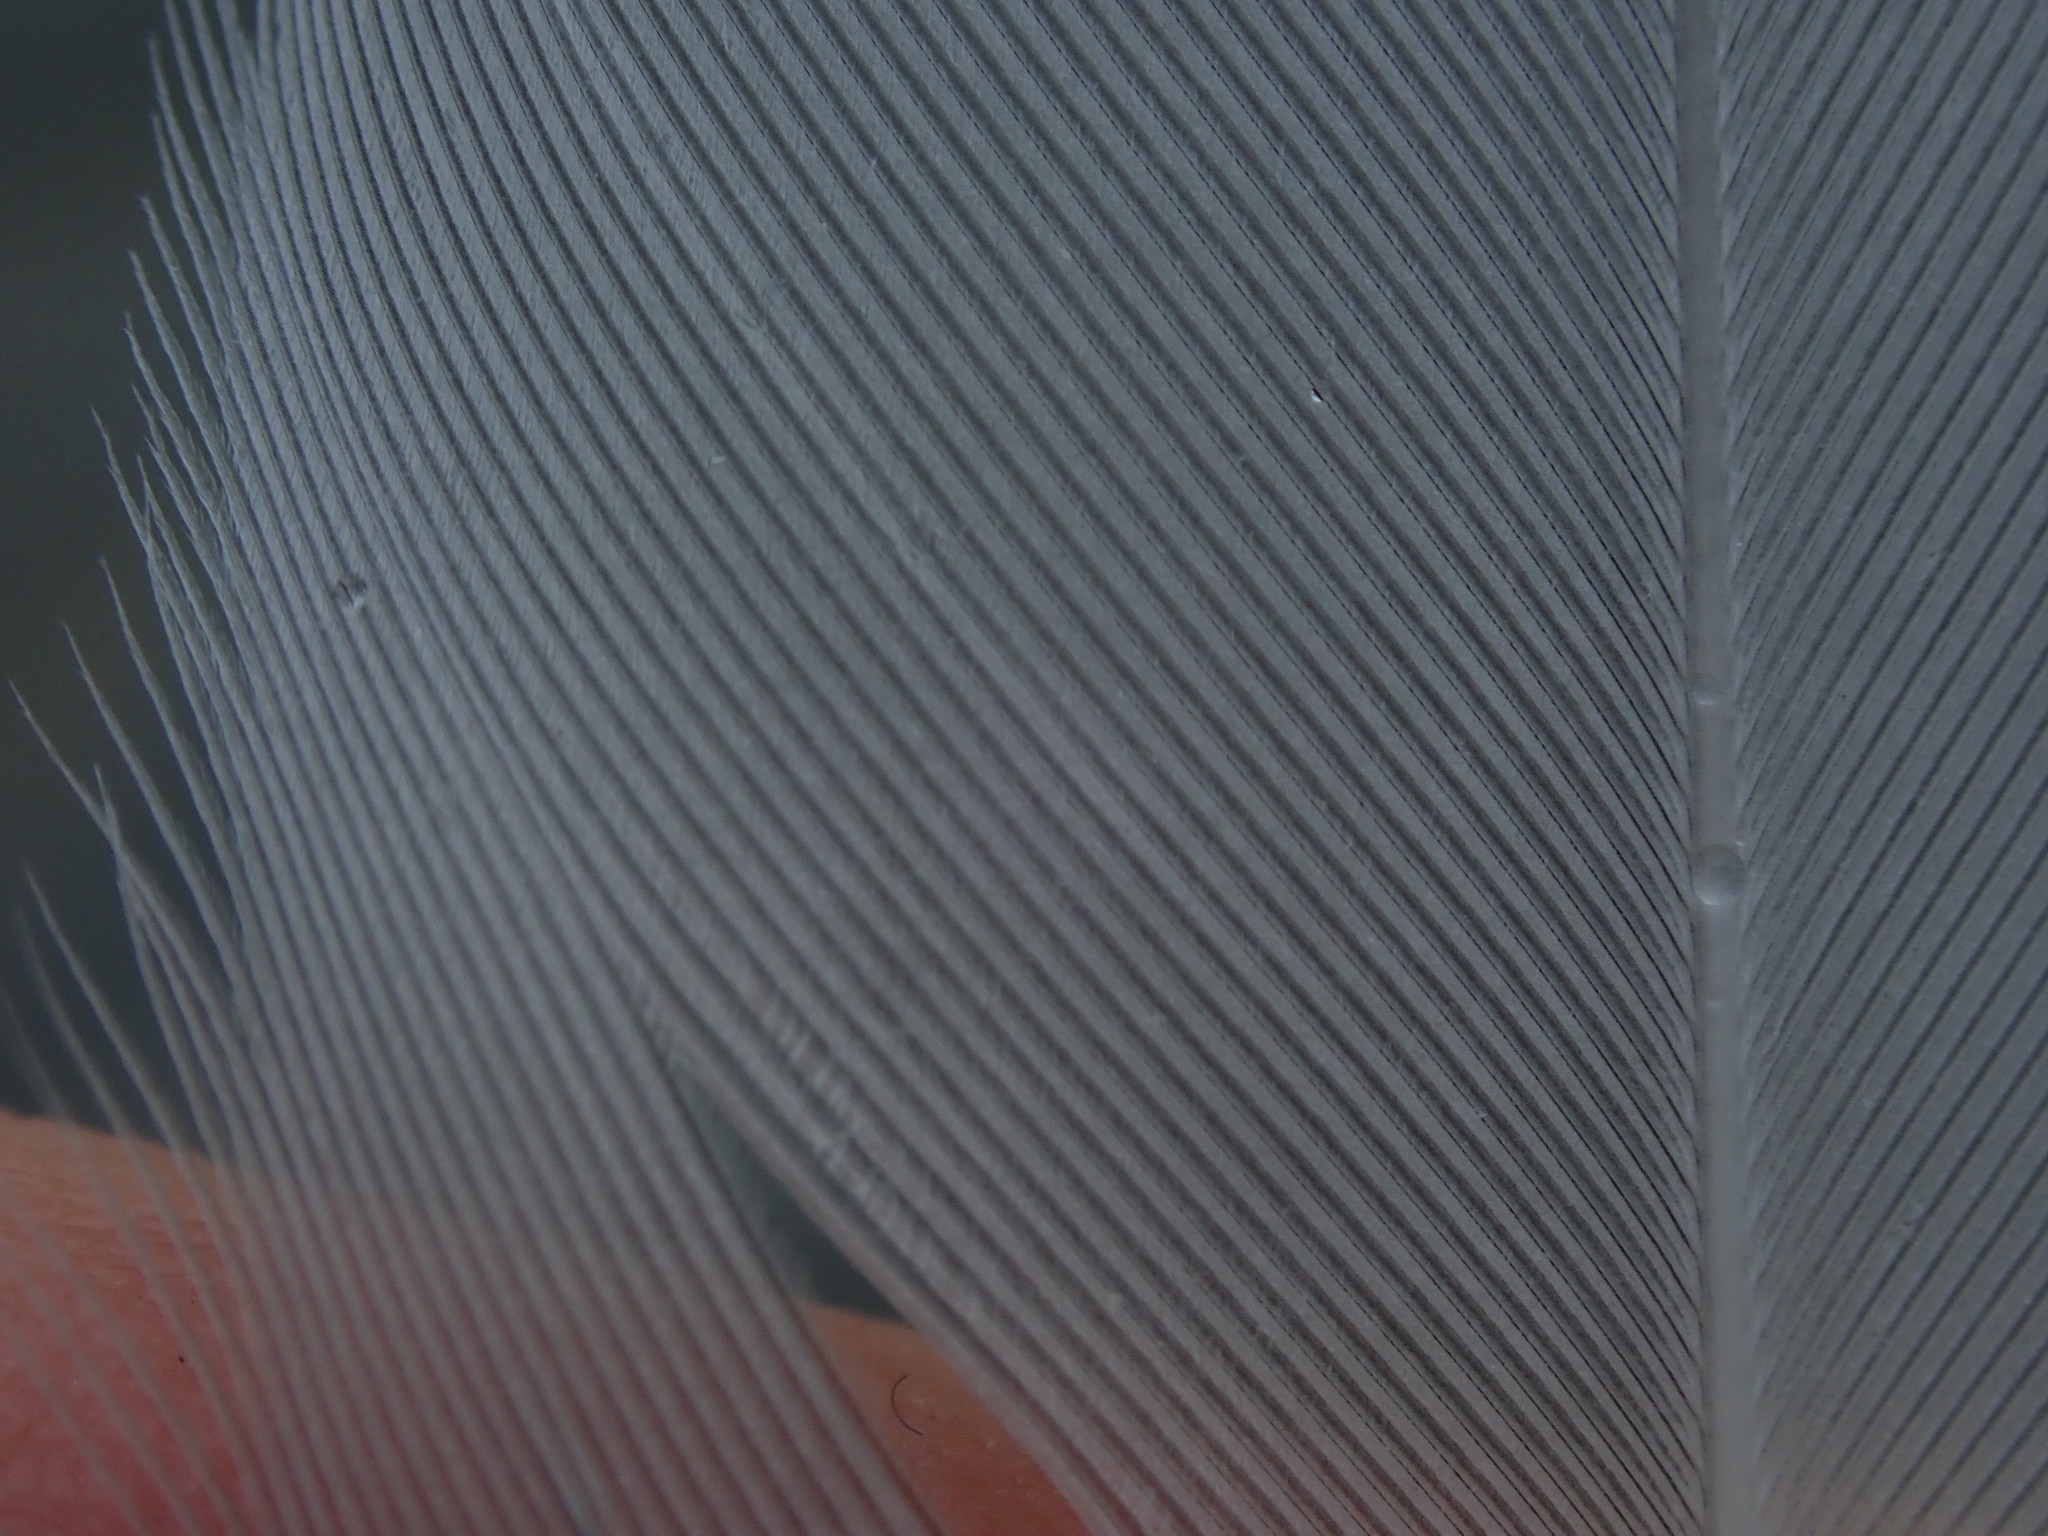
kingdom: Animalia
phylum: Chordata
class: Aves
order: Charadriiformes
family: Laridae
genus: Larus
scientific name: Larus
